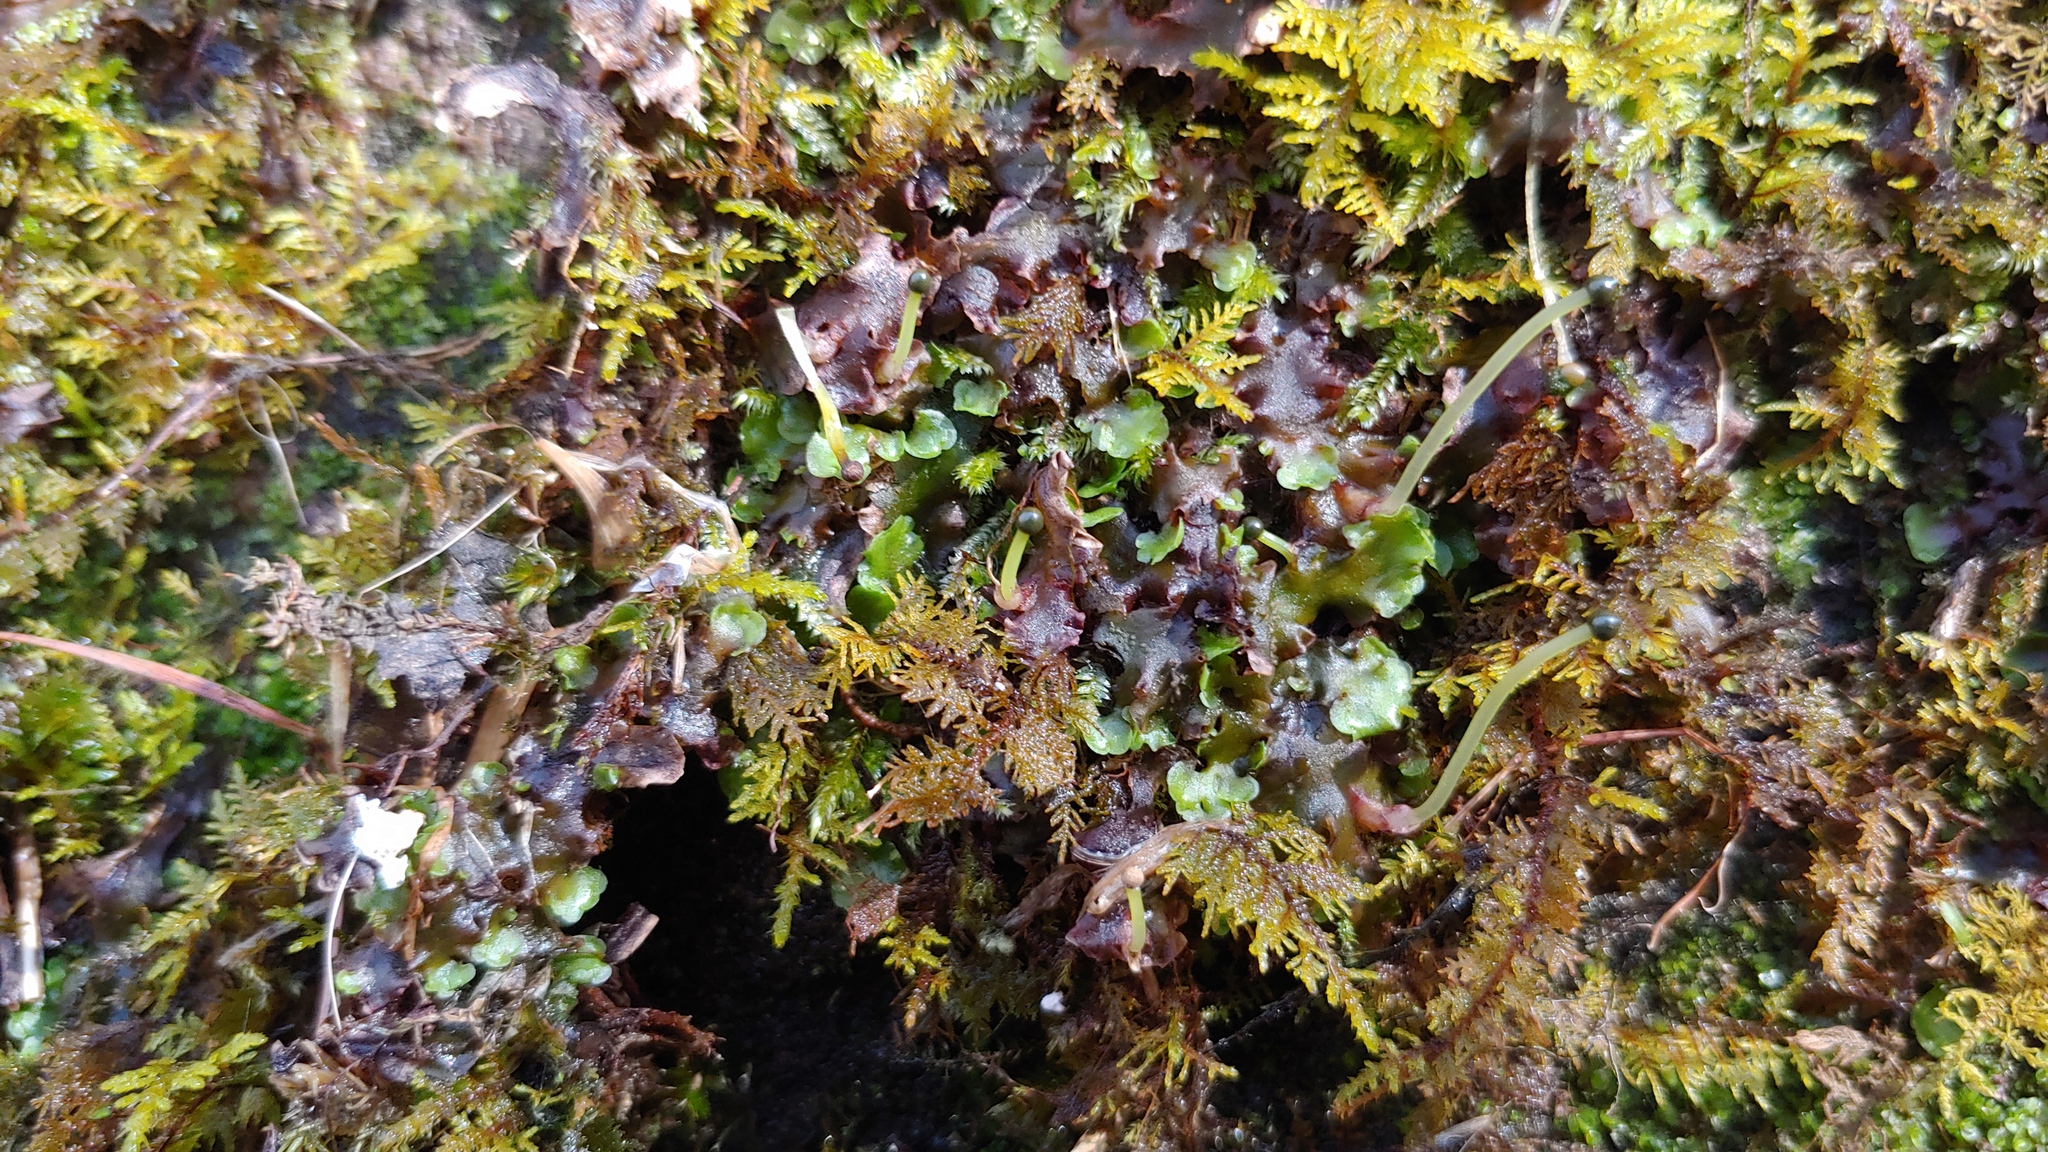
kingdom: Plantae
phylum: Marchantiophyta
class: Jungermanniopsida
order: Pelliales
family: Pelliaceae
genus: Pellia
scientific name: Pellia epiphylla
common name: Common pellia
